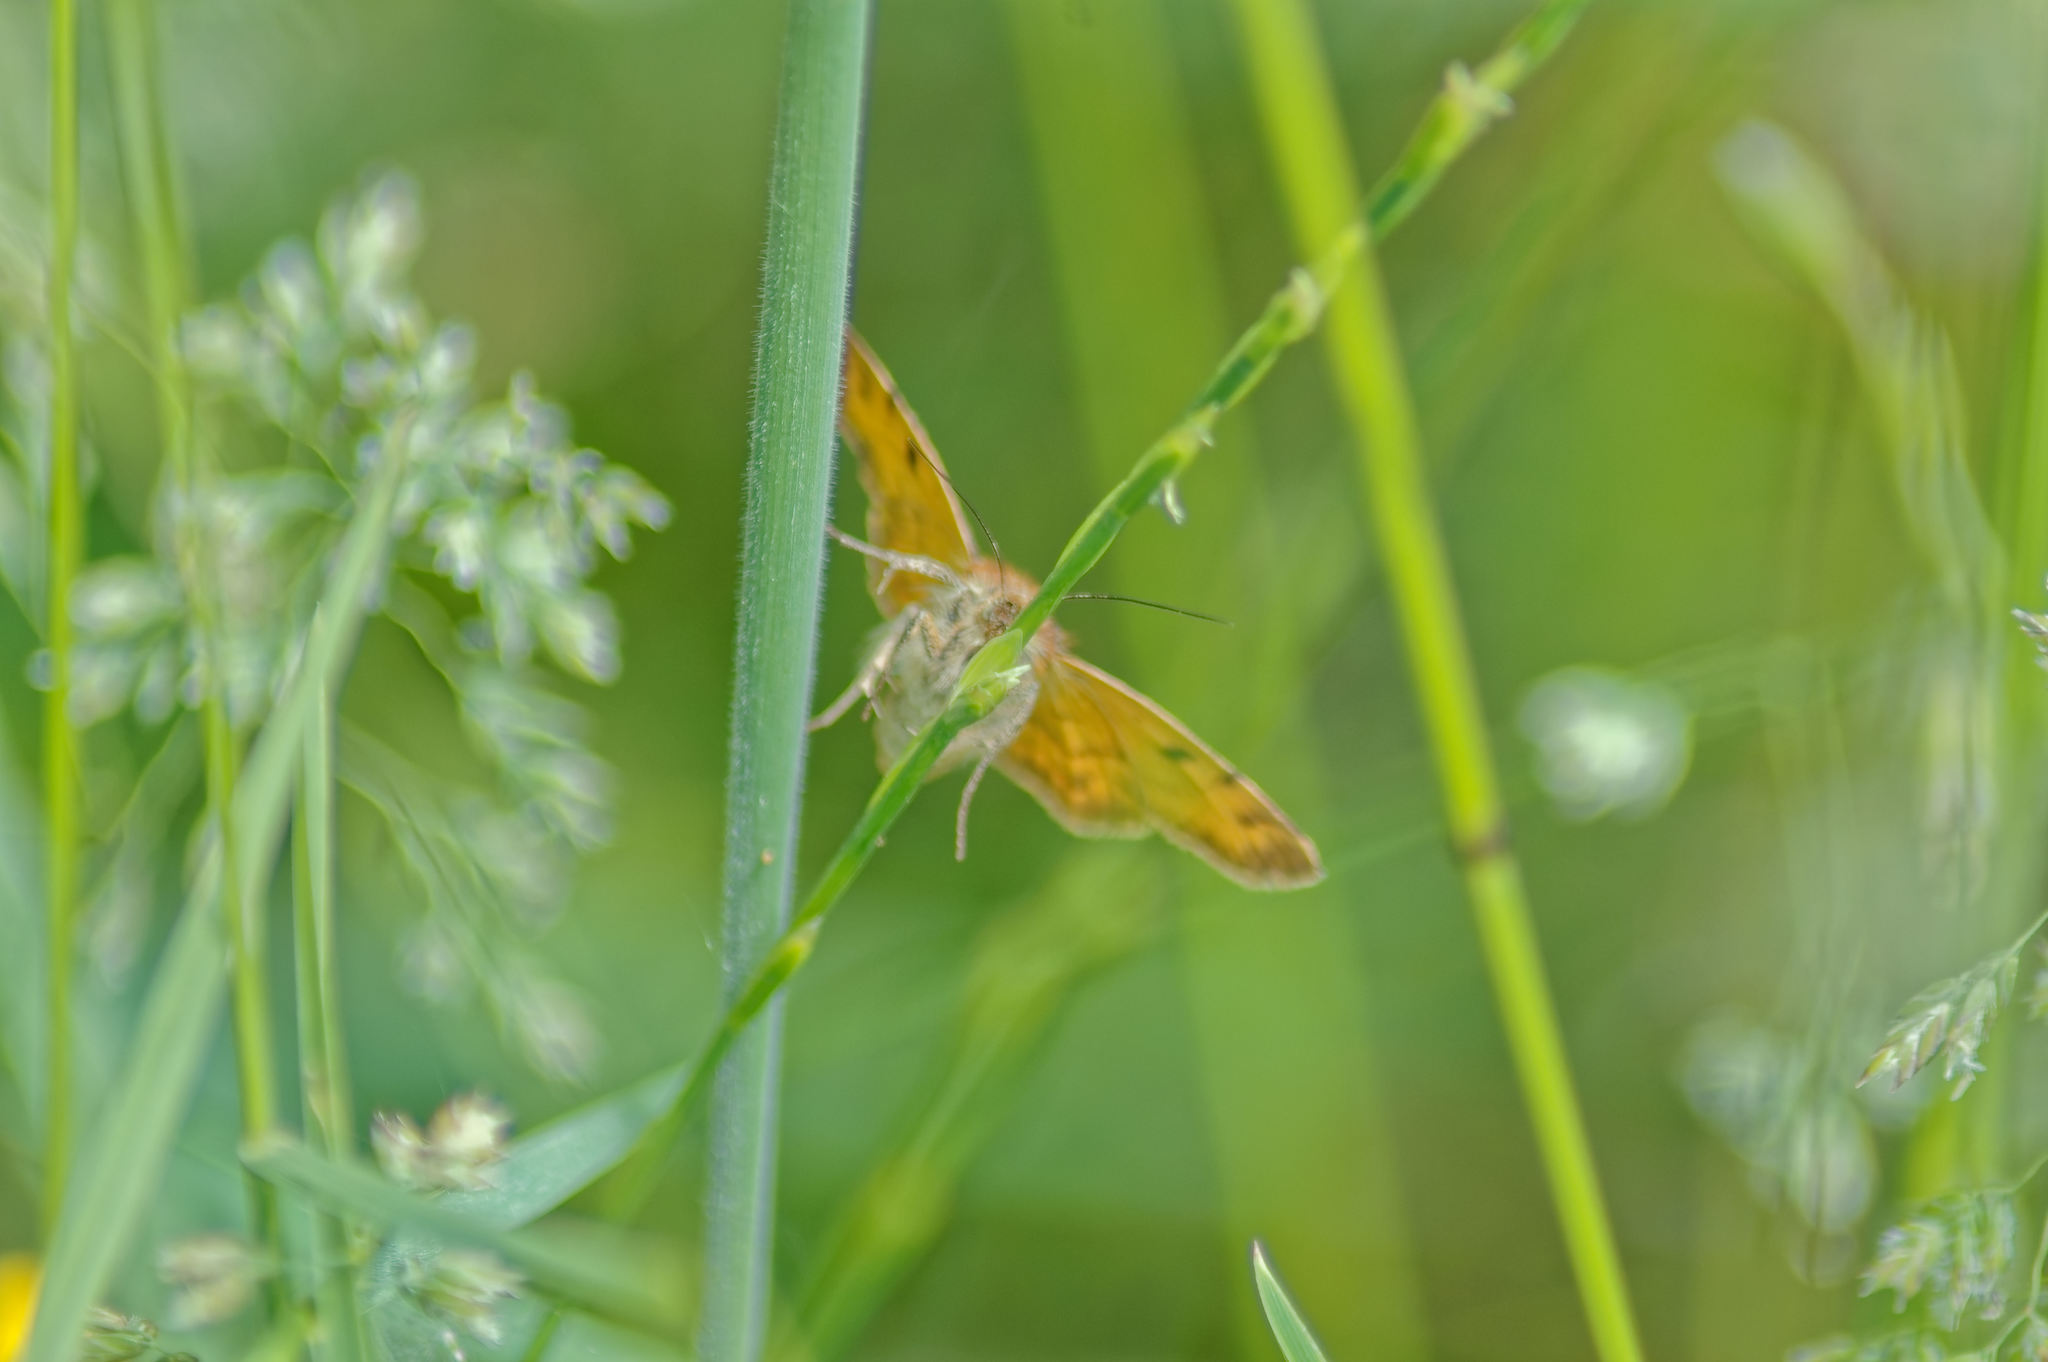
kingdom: Animalia
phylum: Arthropoda
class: Insecta
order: Lepidoptera
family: Erebidae
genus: Euclidia
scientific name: Euclidia glyphica
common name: Burnet companion
